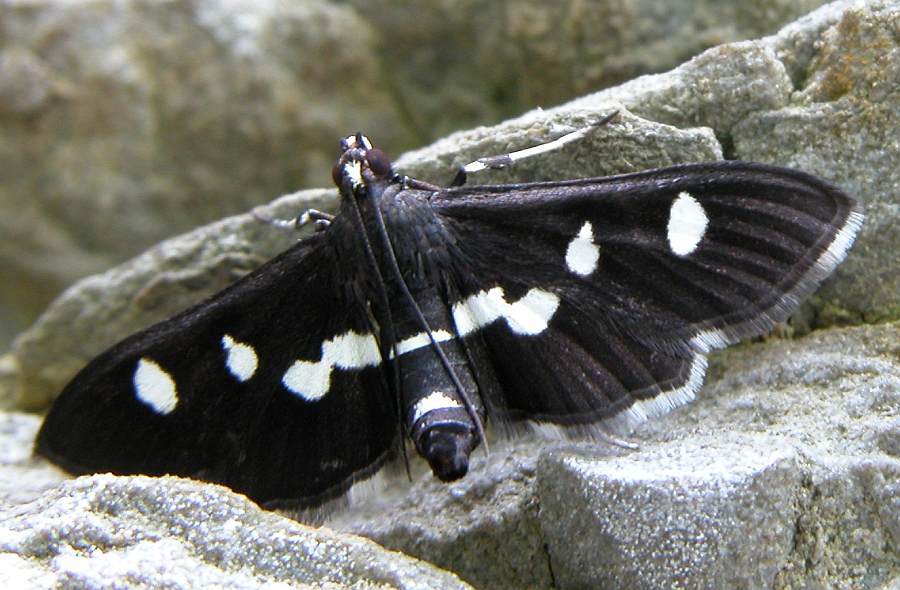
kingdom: Animalia
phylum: Arthropoda
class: Insecta
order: Lepidoptera
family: Crambidae
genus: Desmia
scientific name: Desmia
